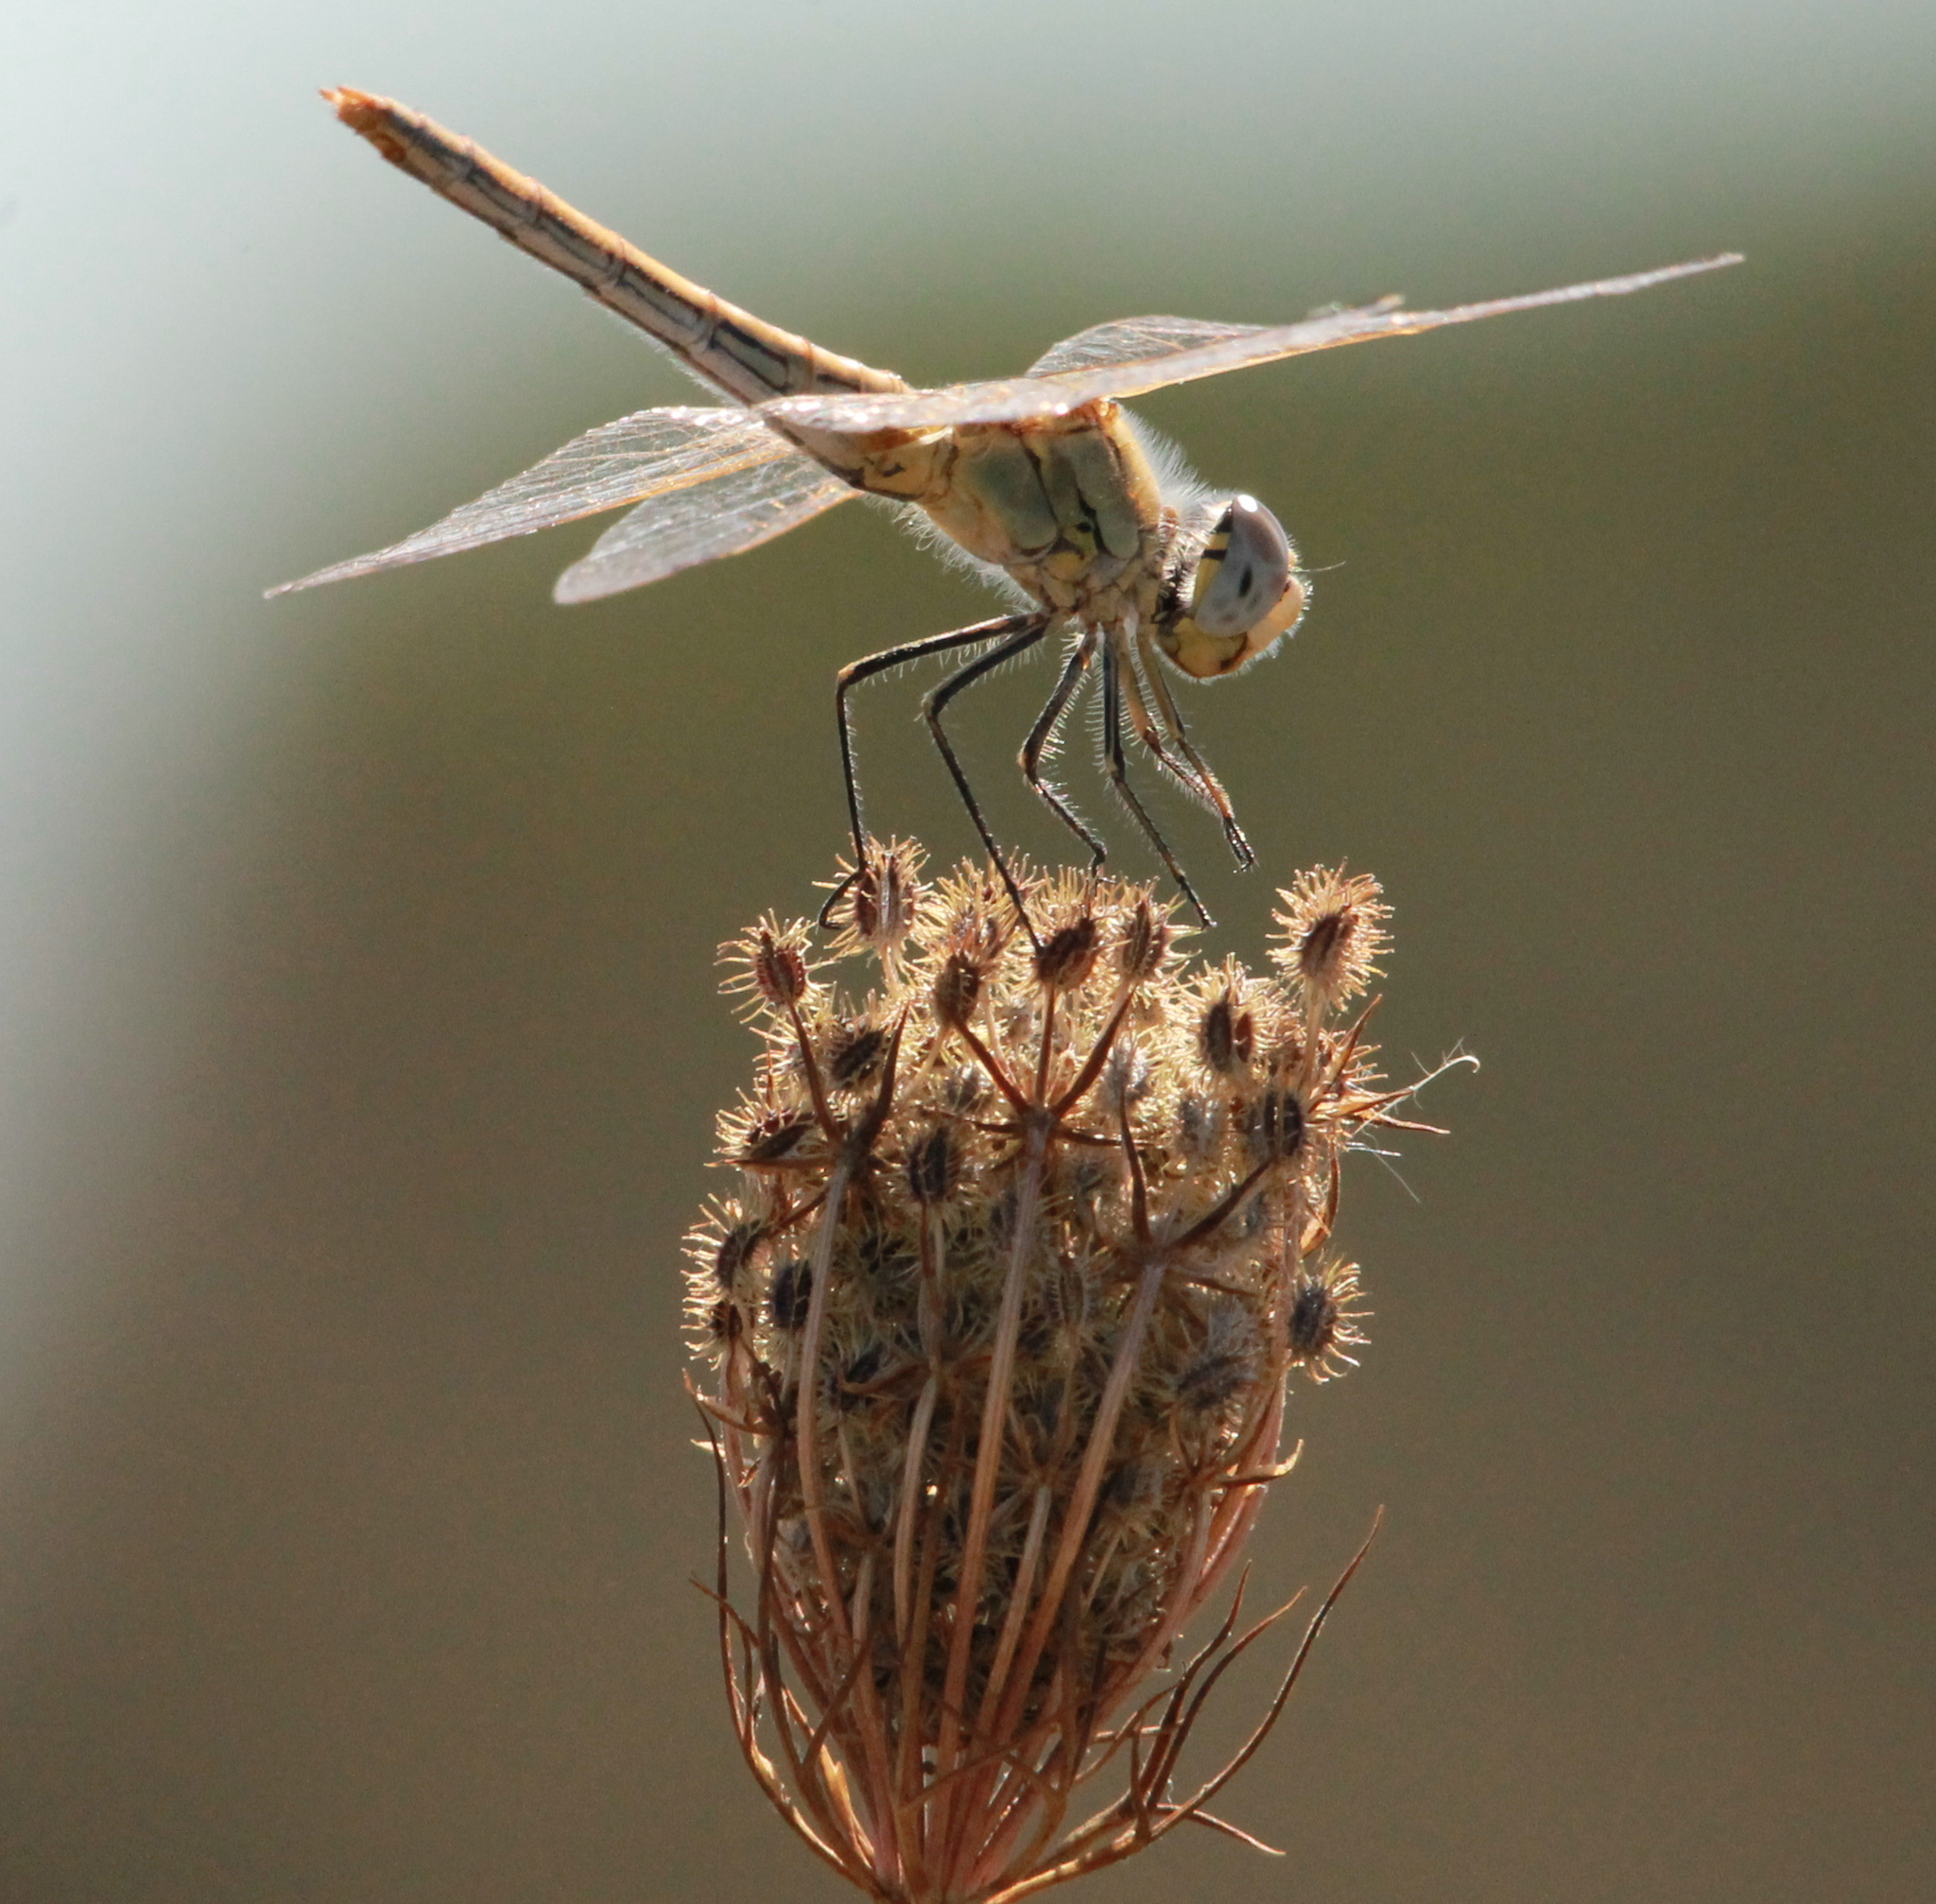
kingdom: Animalia
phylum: Arthropoda
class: Insecta
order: Odonata
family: Libellulidae
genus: Sympetrum
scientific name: Sympetrum fonscolombii
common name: Red-veined darter
